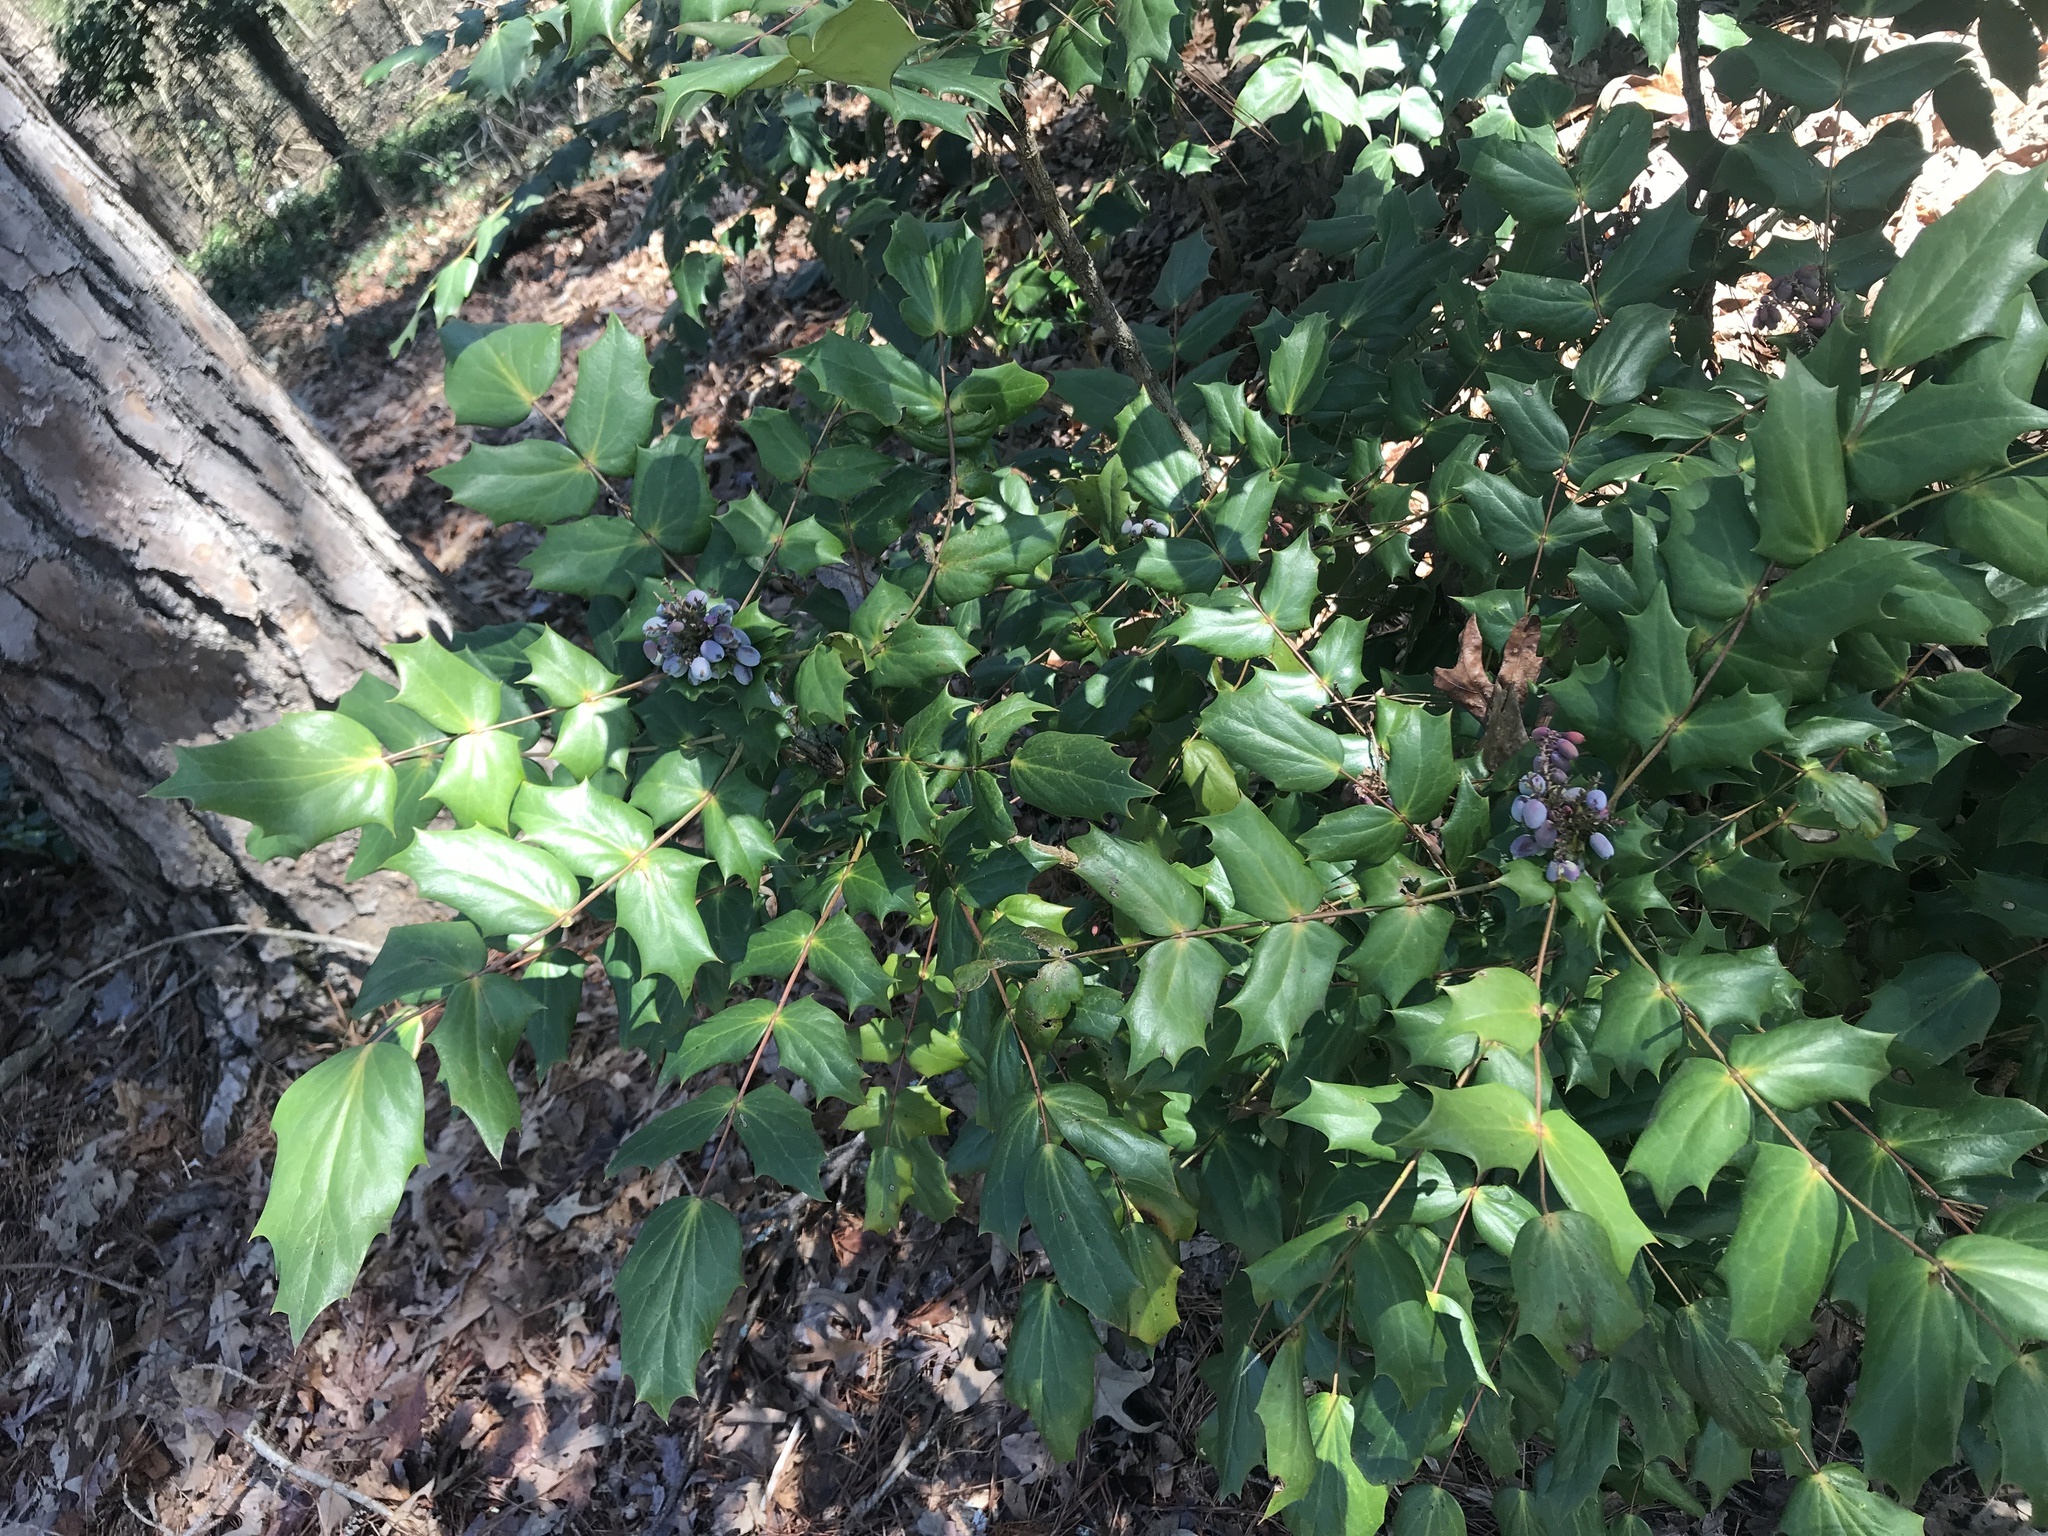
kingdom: Plantae
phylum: Tracheophyta
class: Magnoliopsida
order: Ranunculales
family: Berberidaceae
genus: Mahonia
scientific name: Mahonia bealei
